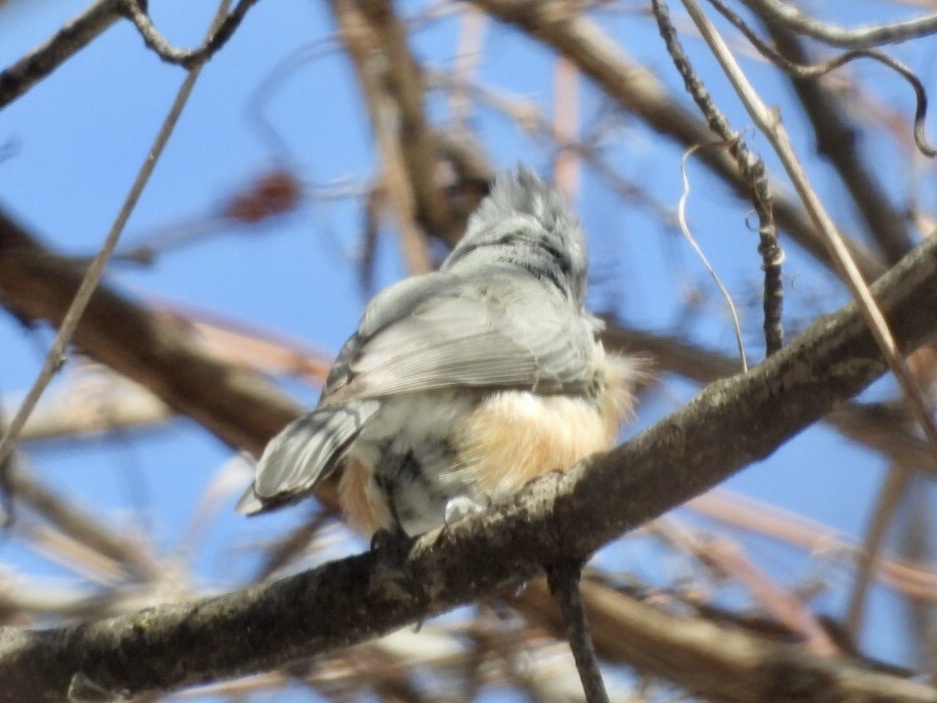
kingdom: Animalia
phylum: Chordata
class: Aves
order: Passeriformes
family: Paridae
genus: Baeolophus
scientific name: Baeolophus bicolor
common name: Tufted titmouse
